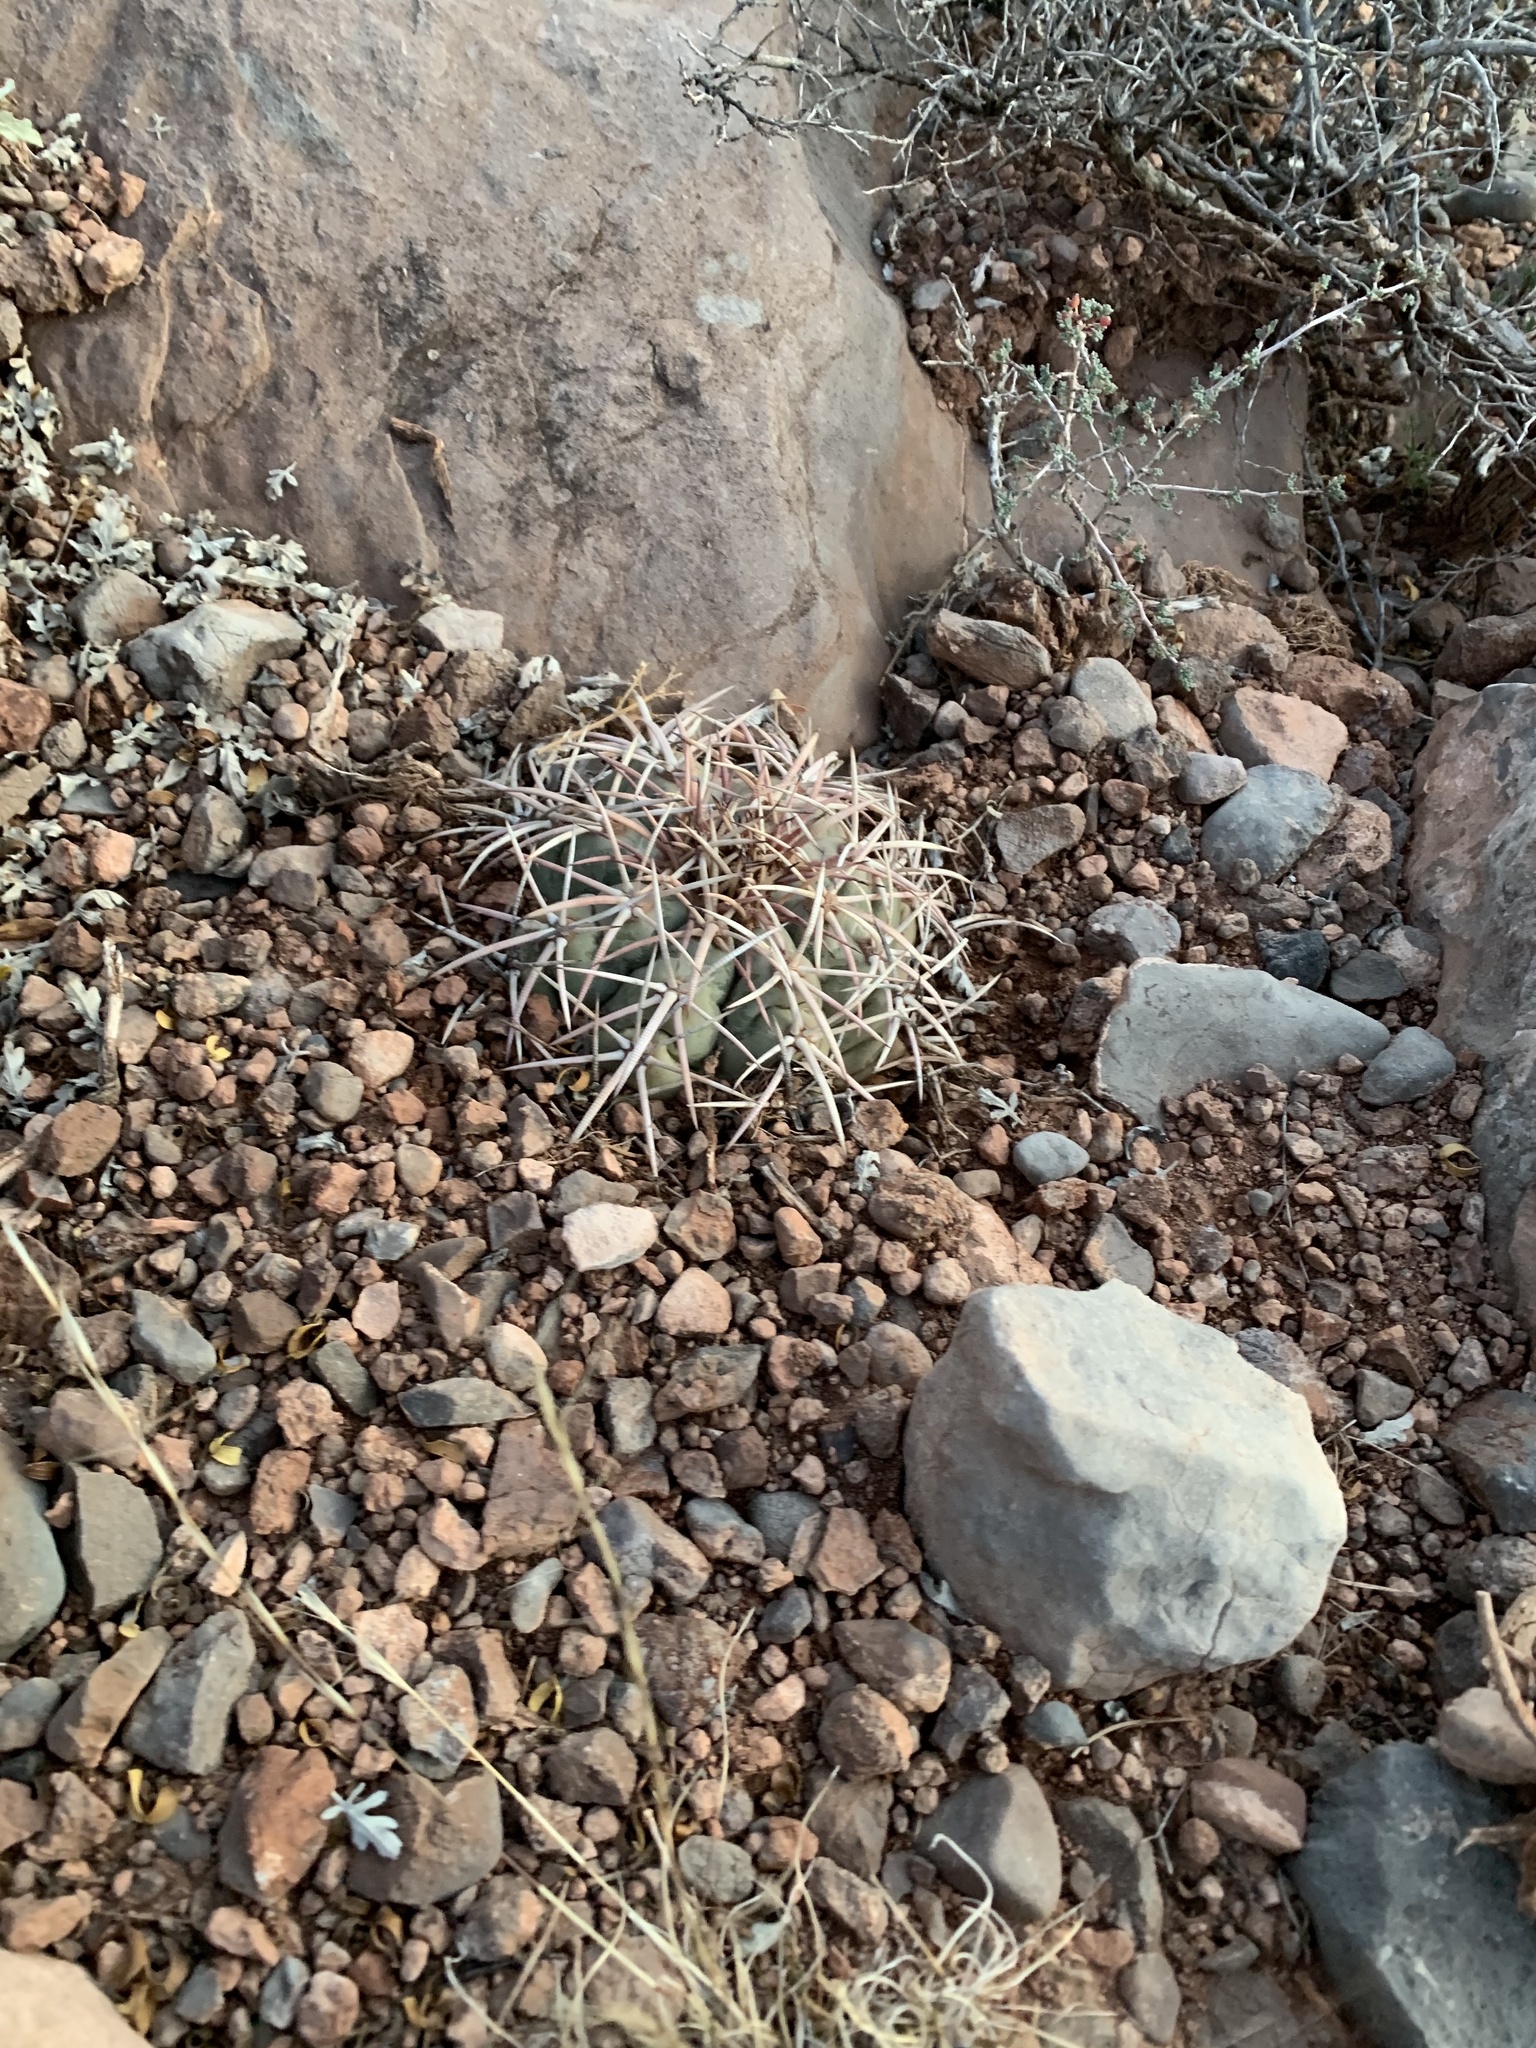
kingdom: Plantae
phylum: Tracheophyta
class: Magnoliopsida
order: Caryophyllales
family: Cactaceae
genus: Echinocactus
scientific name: Echinocactus horizonthalonius
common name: Devilshead
